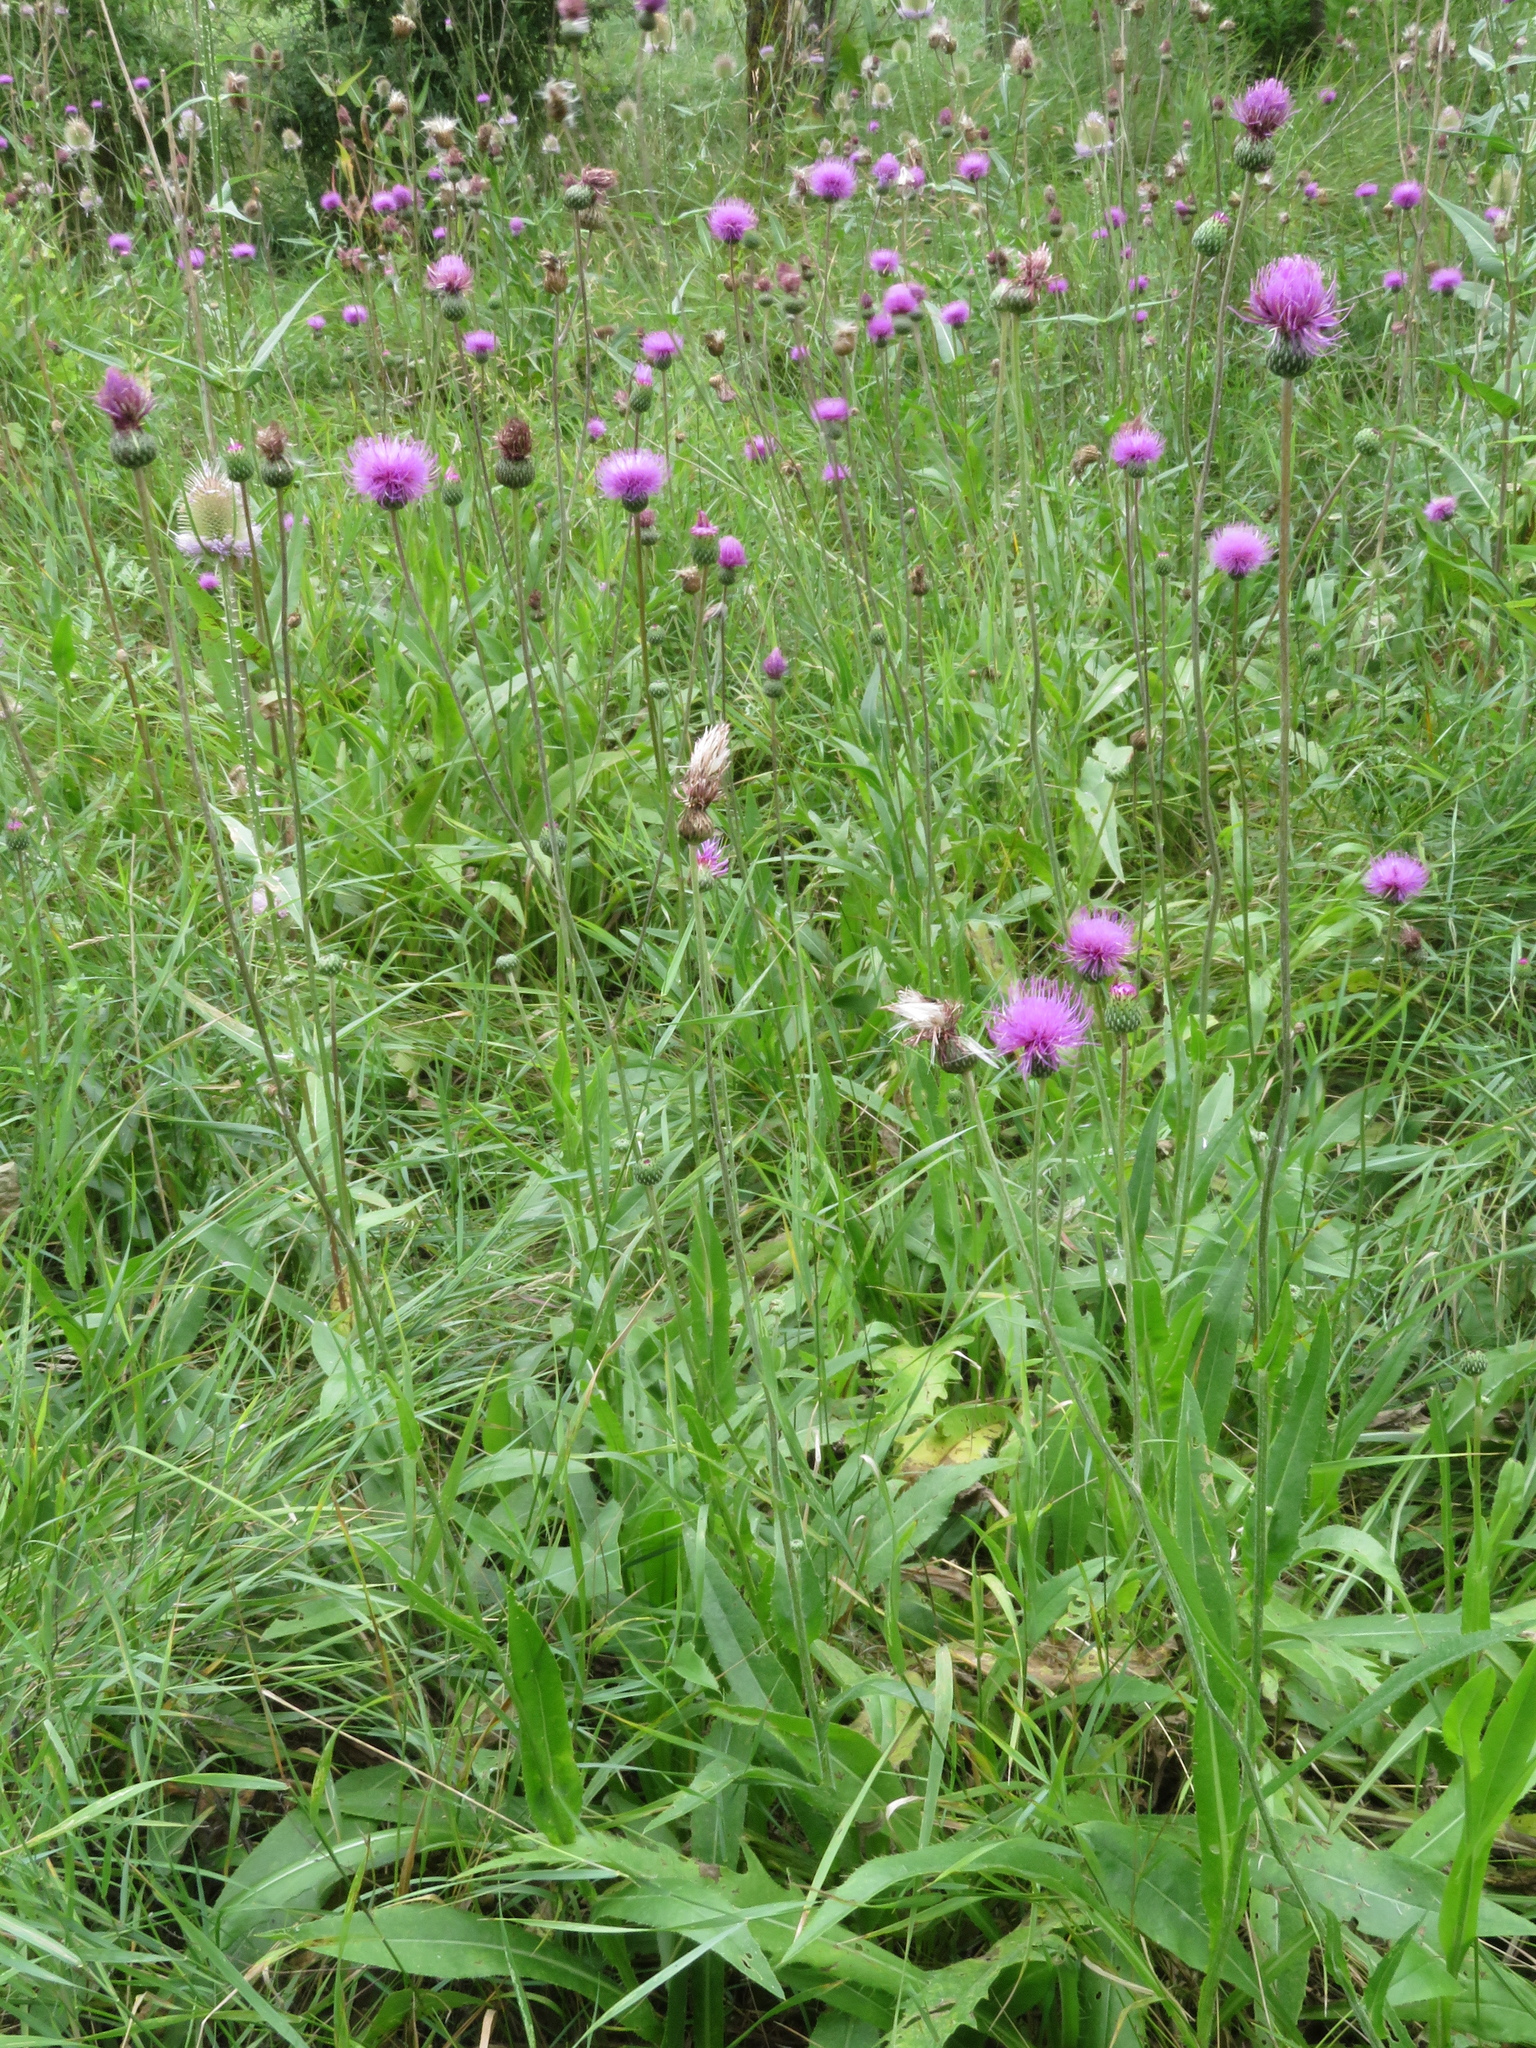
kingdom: Plantae
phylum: Tracheophyta
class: Magnoliopsida
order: Asterales
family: Asteraceae
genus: Cirsium
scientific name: Cirsium canum
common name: Queen anne's thistle
